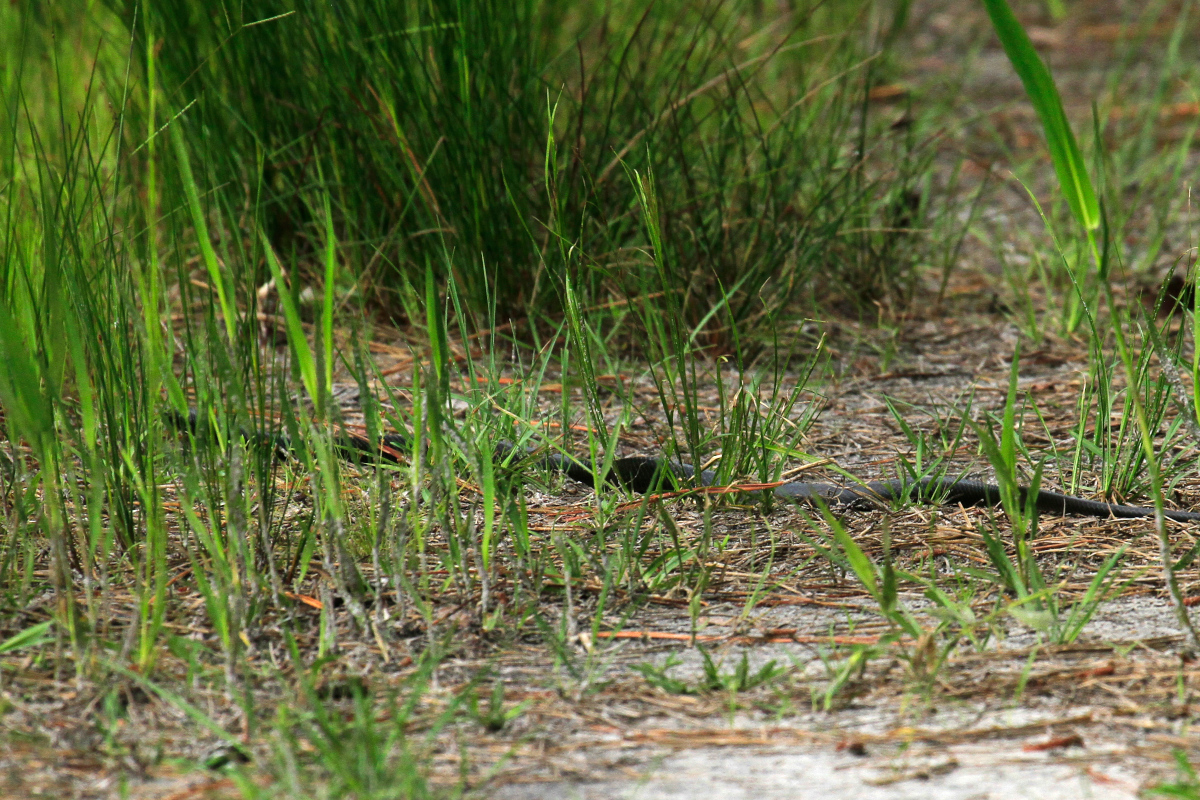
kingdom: Animalia
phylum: Chordata
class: Squamata
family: Colubridae
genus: Coluber
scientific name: Coluber constrictor
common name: Eastern racer
